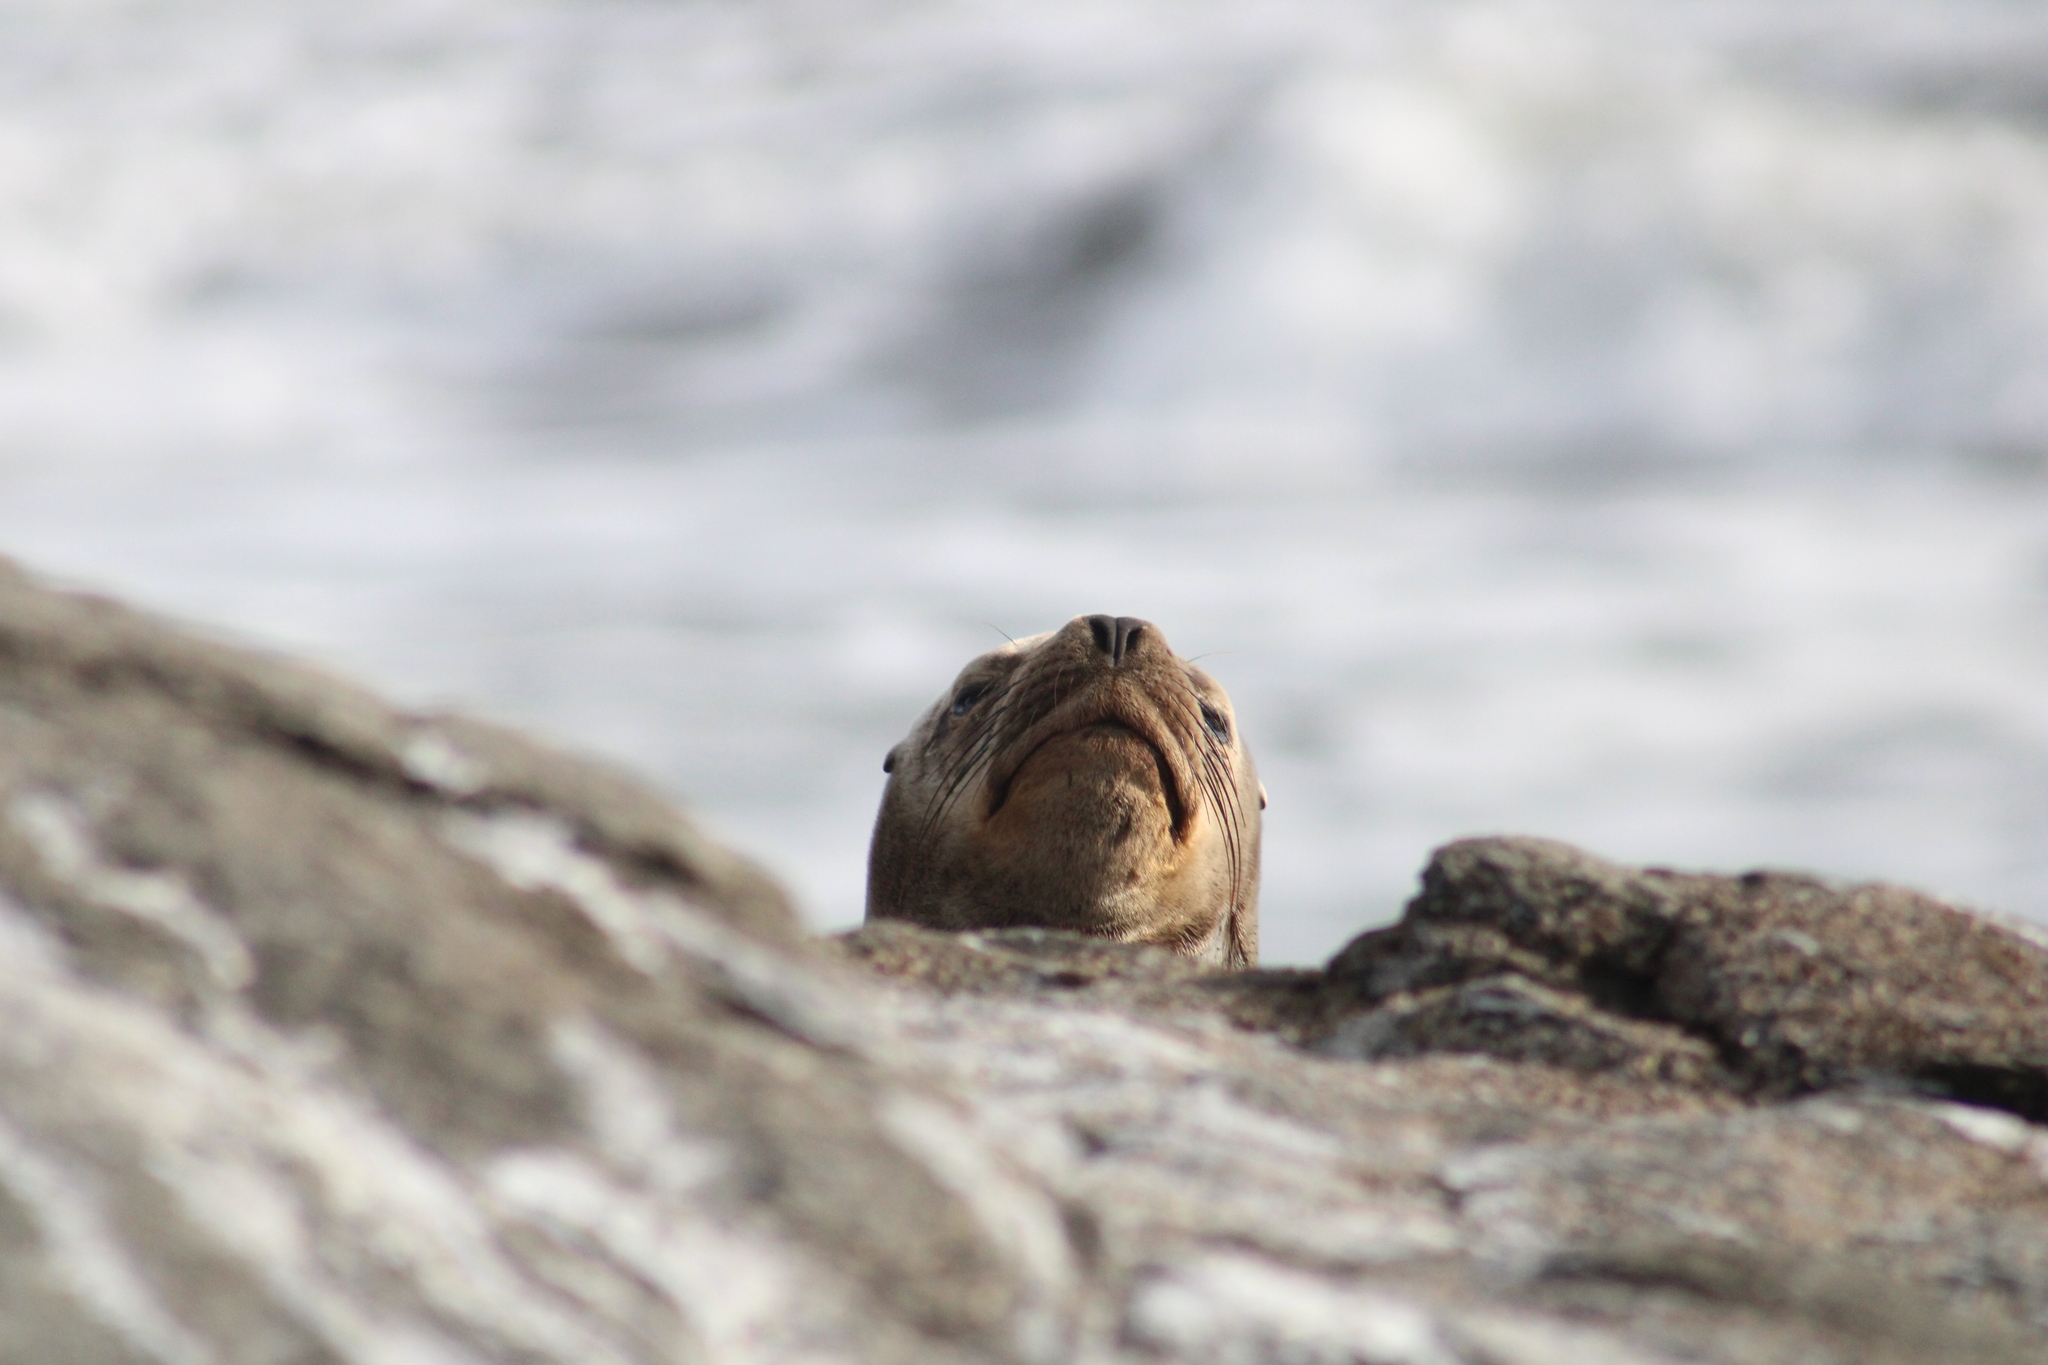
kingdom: Animalia
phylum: Chordata
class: Mammalia
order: Carnivora
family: Otariidae
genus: Otaria
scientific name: Otaria byronia
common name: South american sea lion
